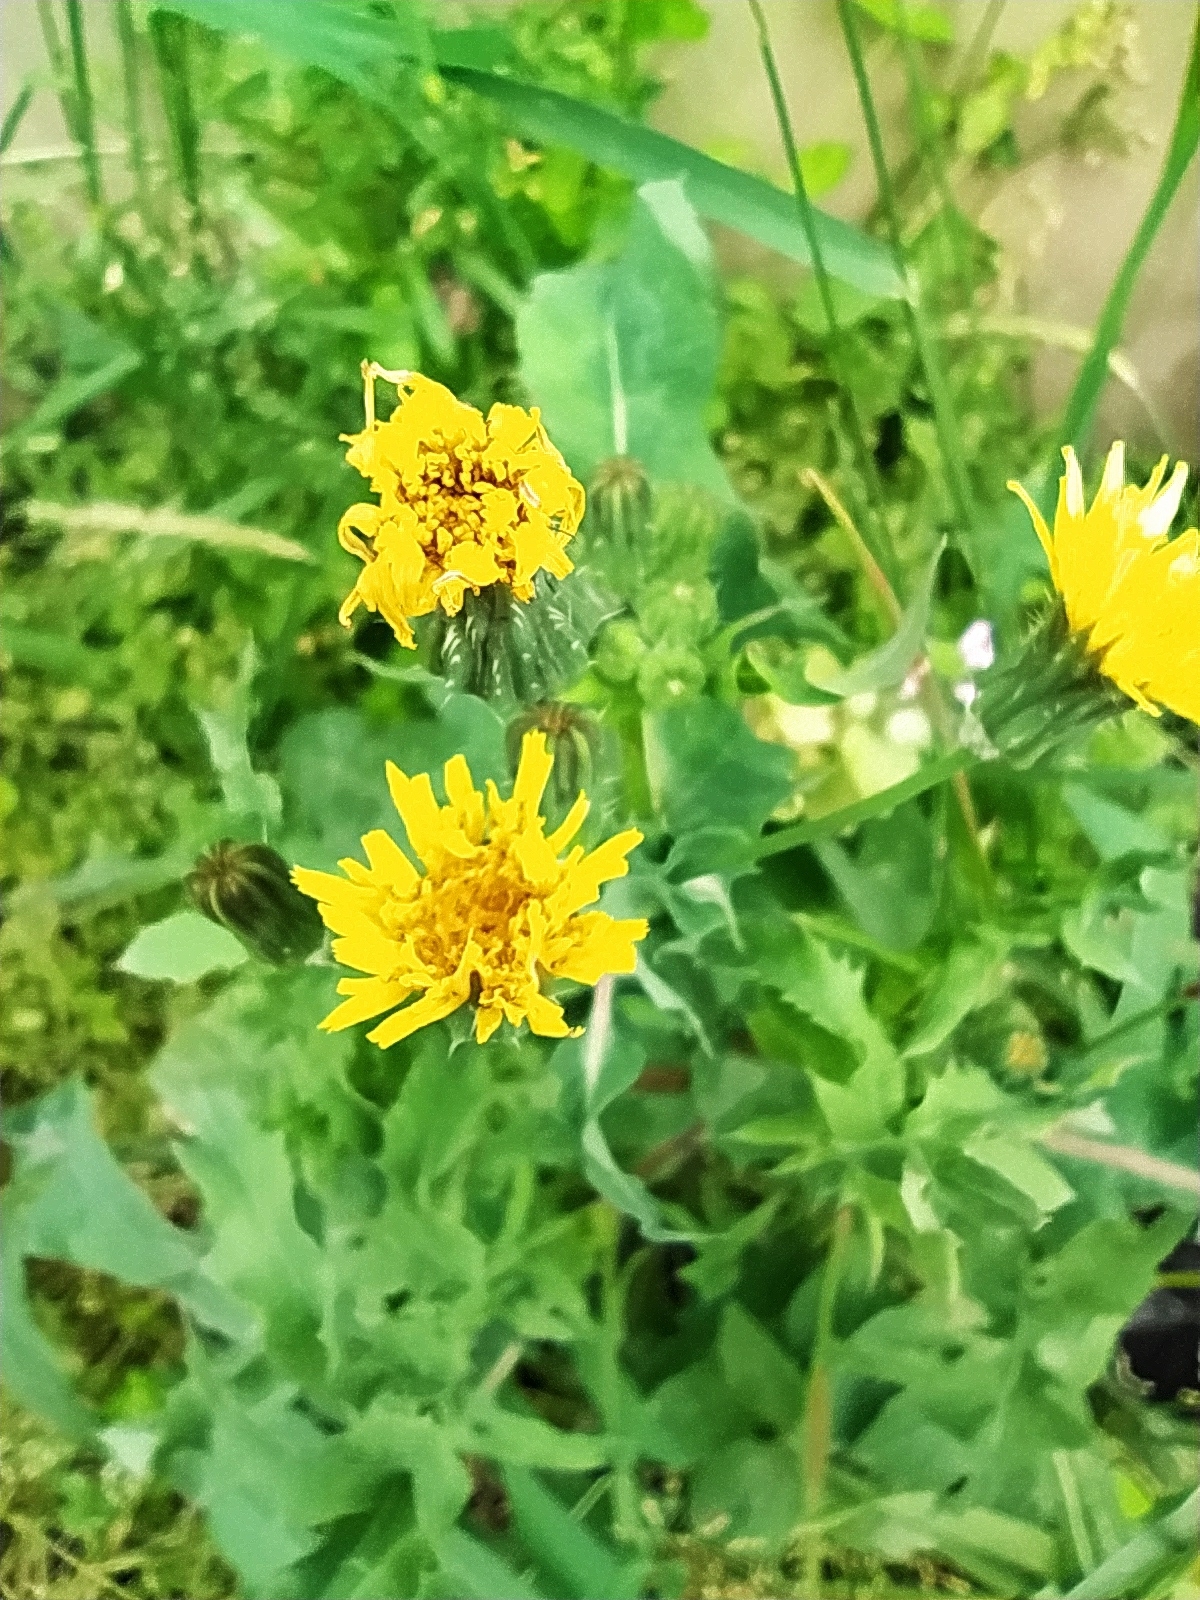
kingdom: Plantae
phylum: Tracheophyta
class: Magnoliopsida
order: Asterales
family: Asteraceae
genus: Sonchus
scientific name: Sonchus oleraceus
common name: Common sowthistle
